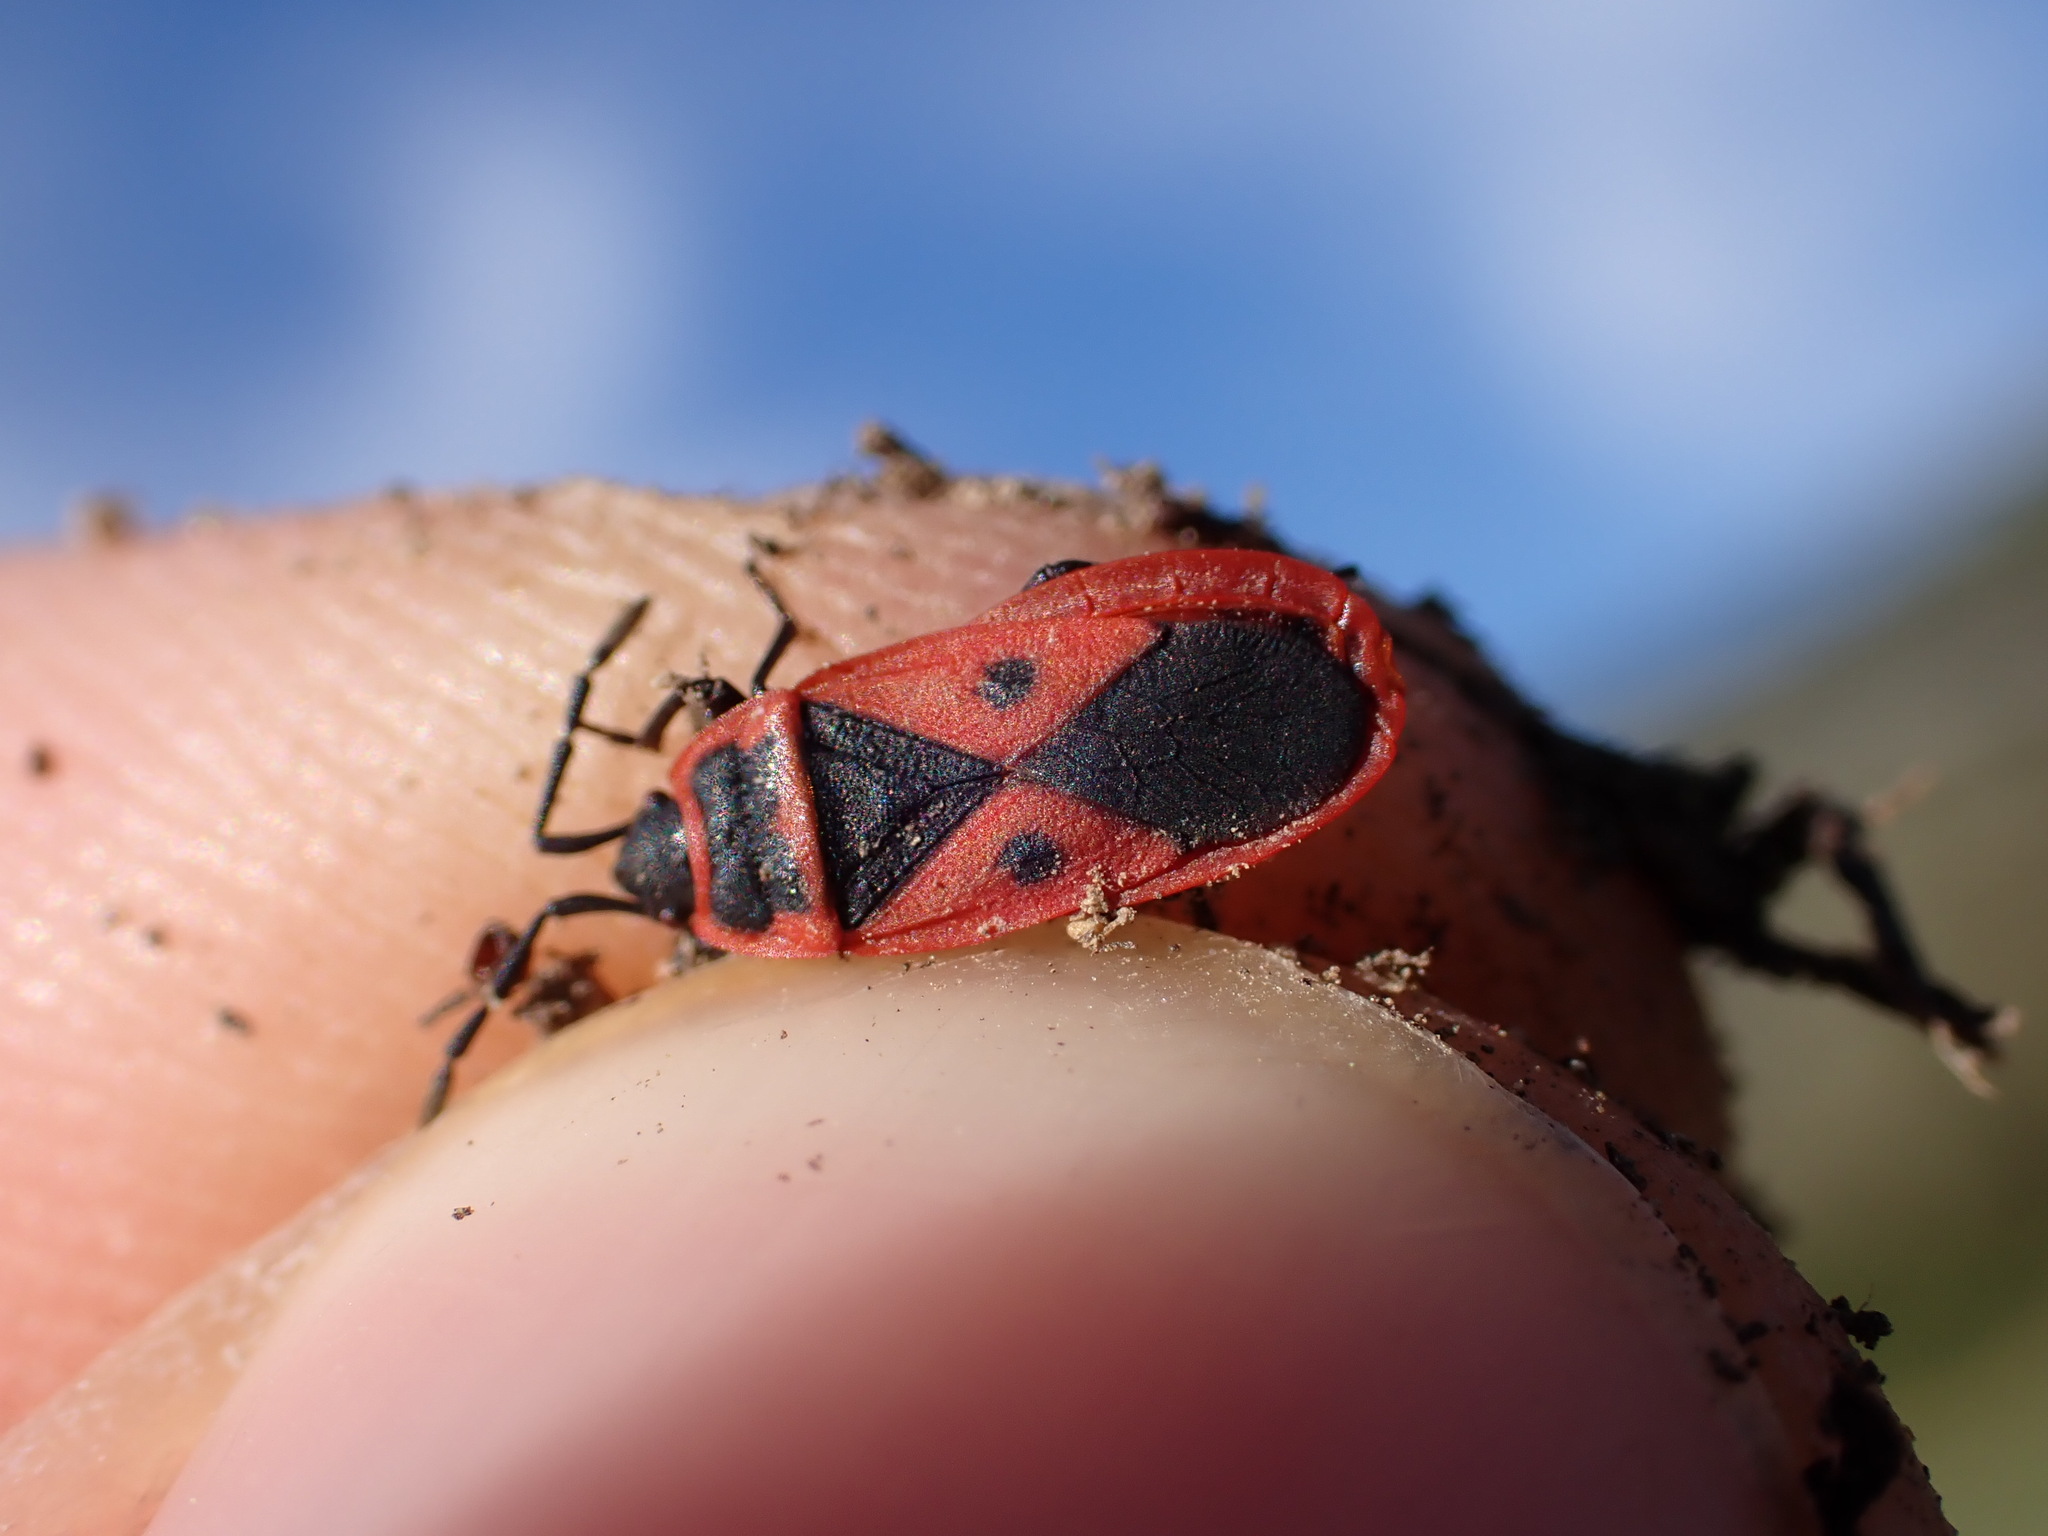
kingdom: Animalia
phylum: Arthropoda
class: Insecta
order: Hemiptera
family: Pyrrhocoridae
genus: Scantius
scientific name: Scantius aegyptius
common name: Red bug
